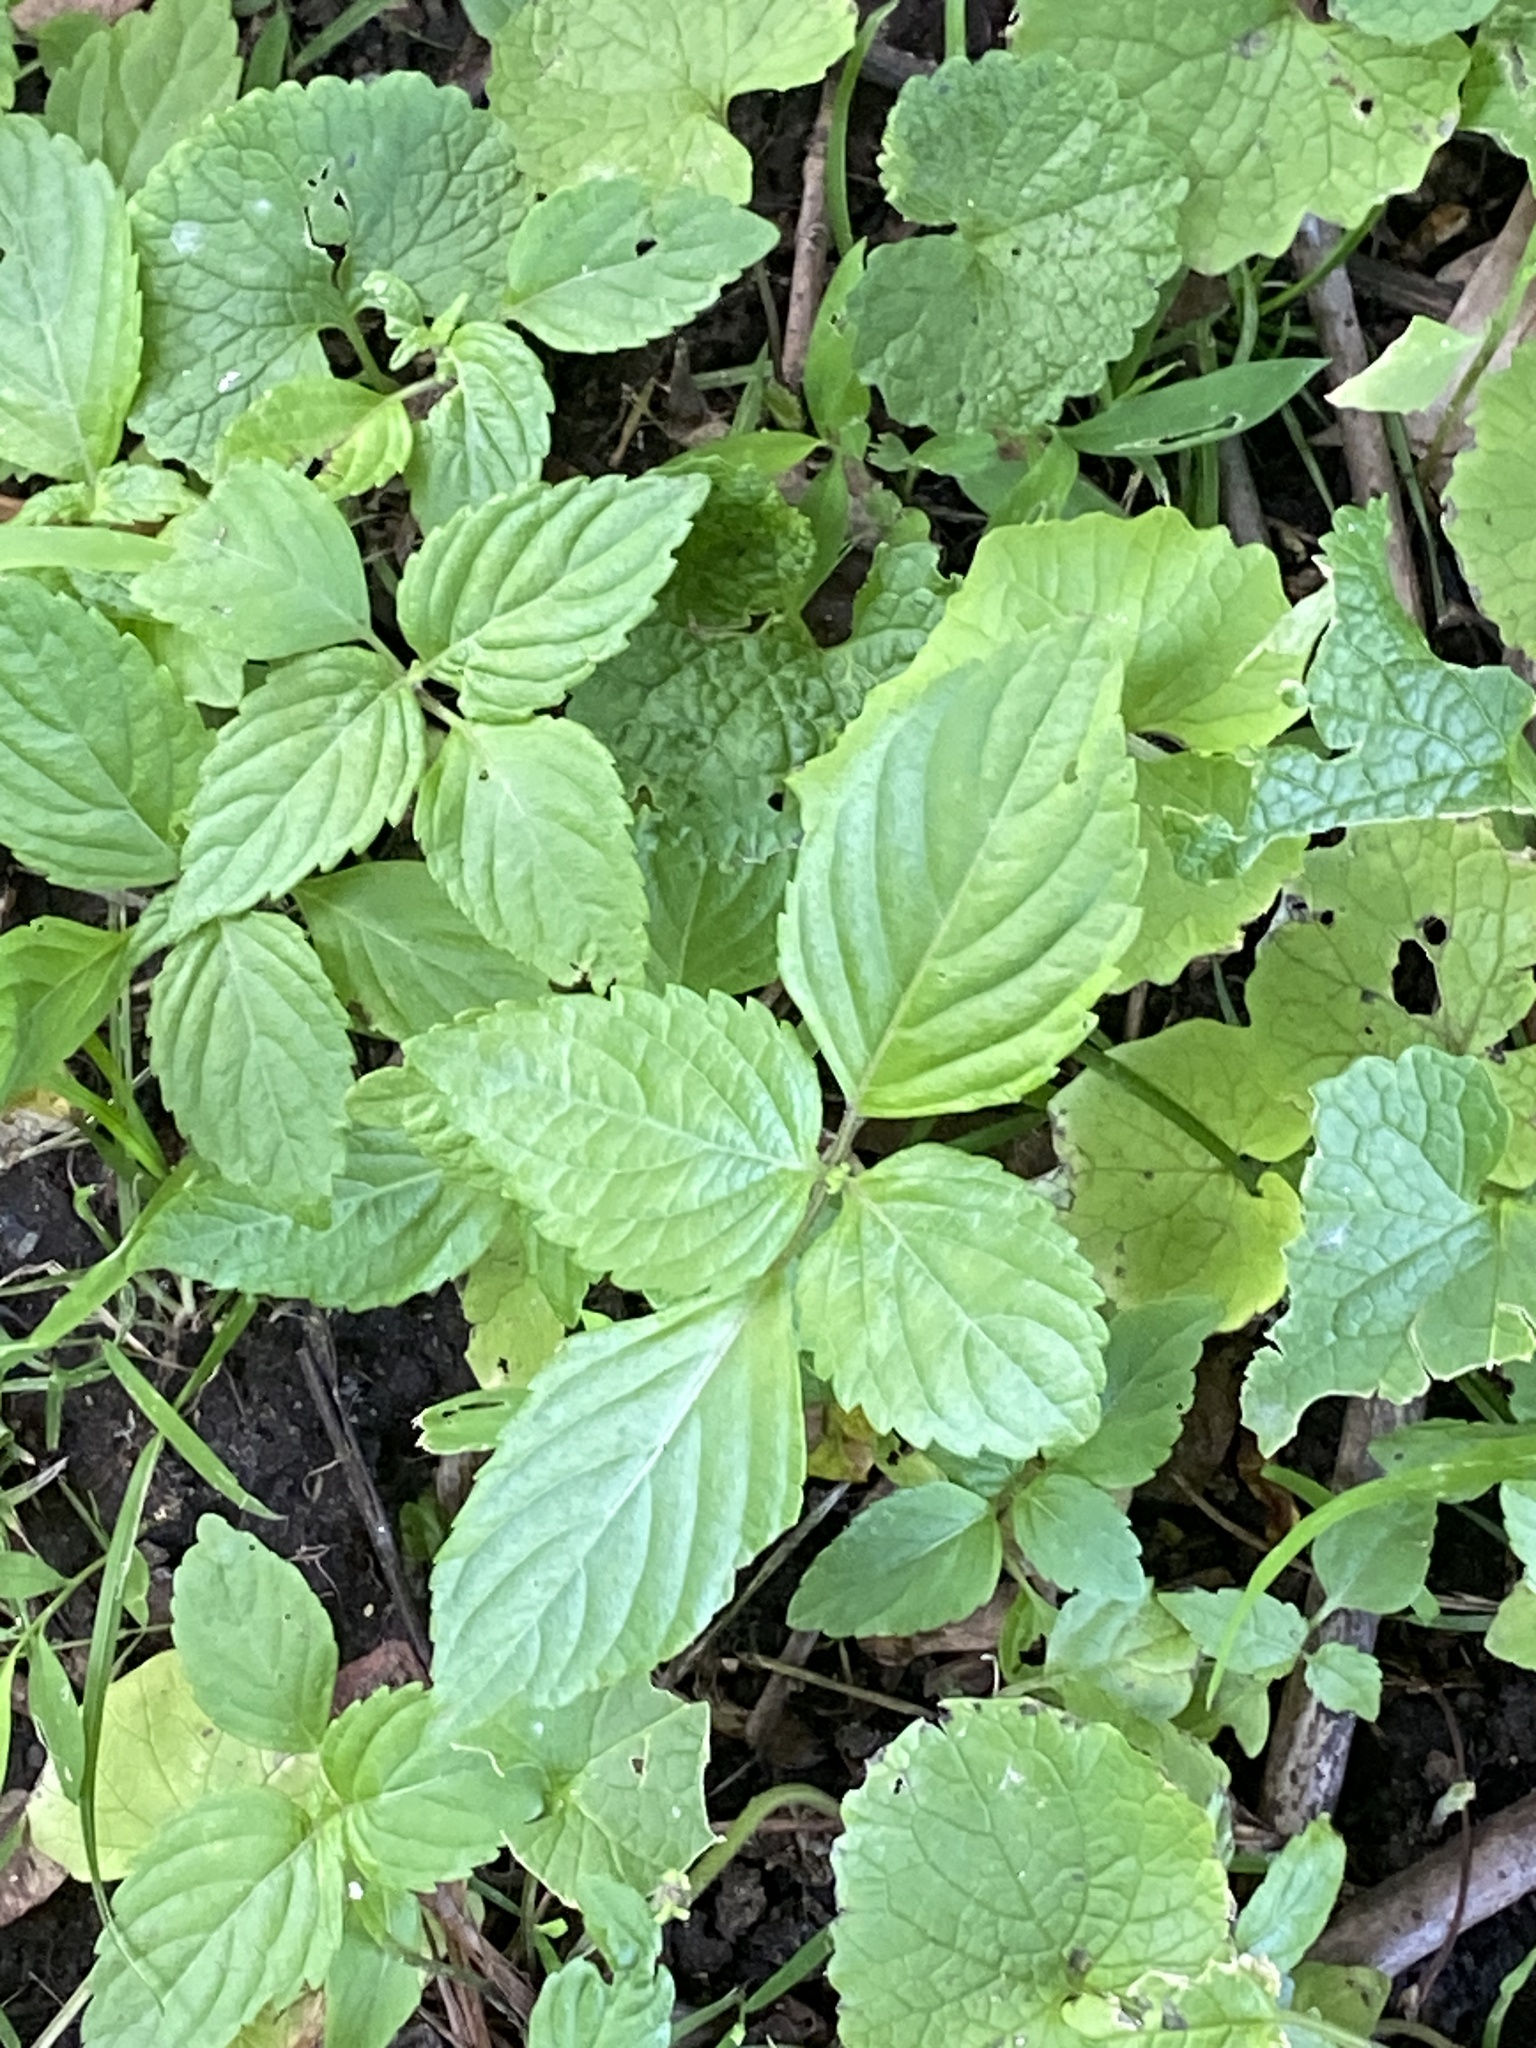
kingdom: Plantae
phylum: Tracheophyta
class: Magnoliopsida
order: Lamiales
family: Lamiaceae
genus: Perilla
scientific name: Perilla frutescens
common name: Perilla
